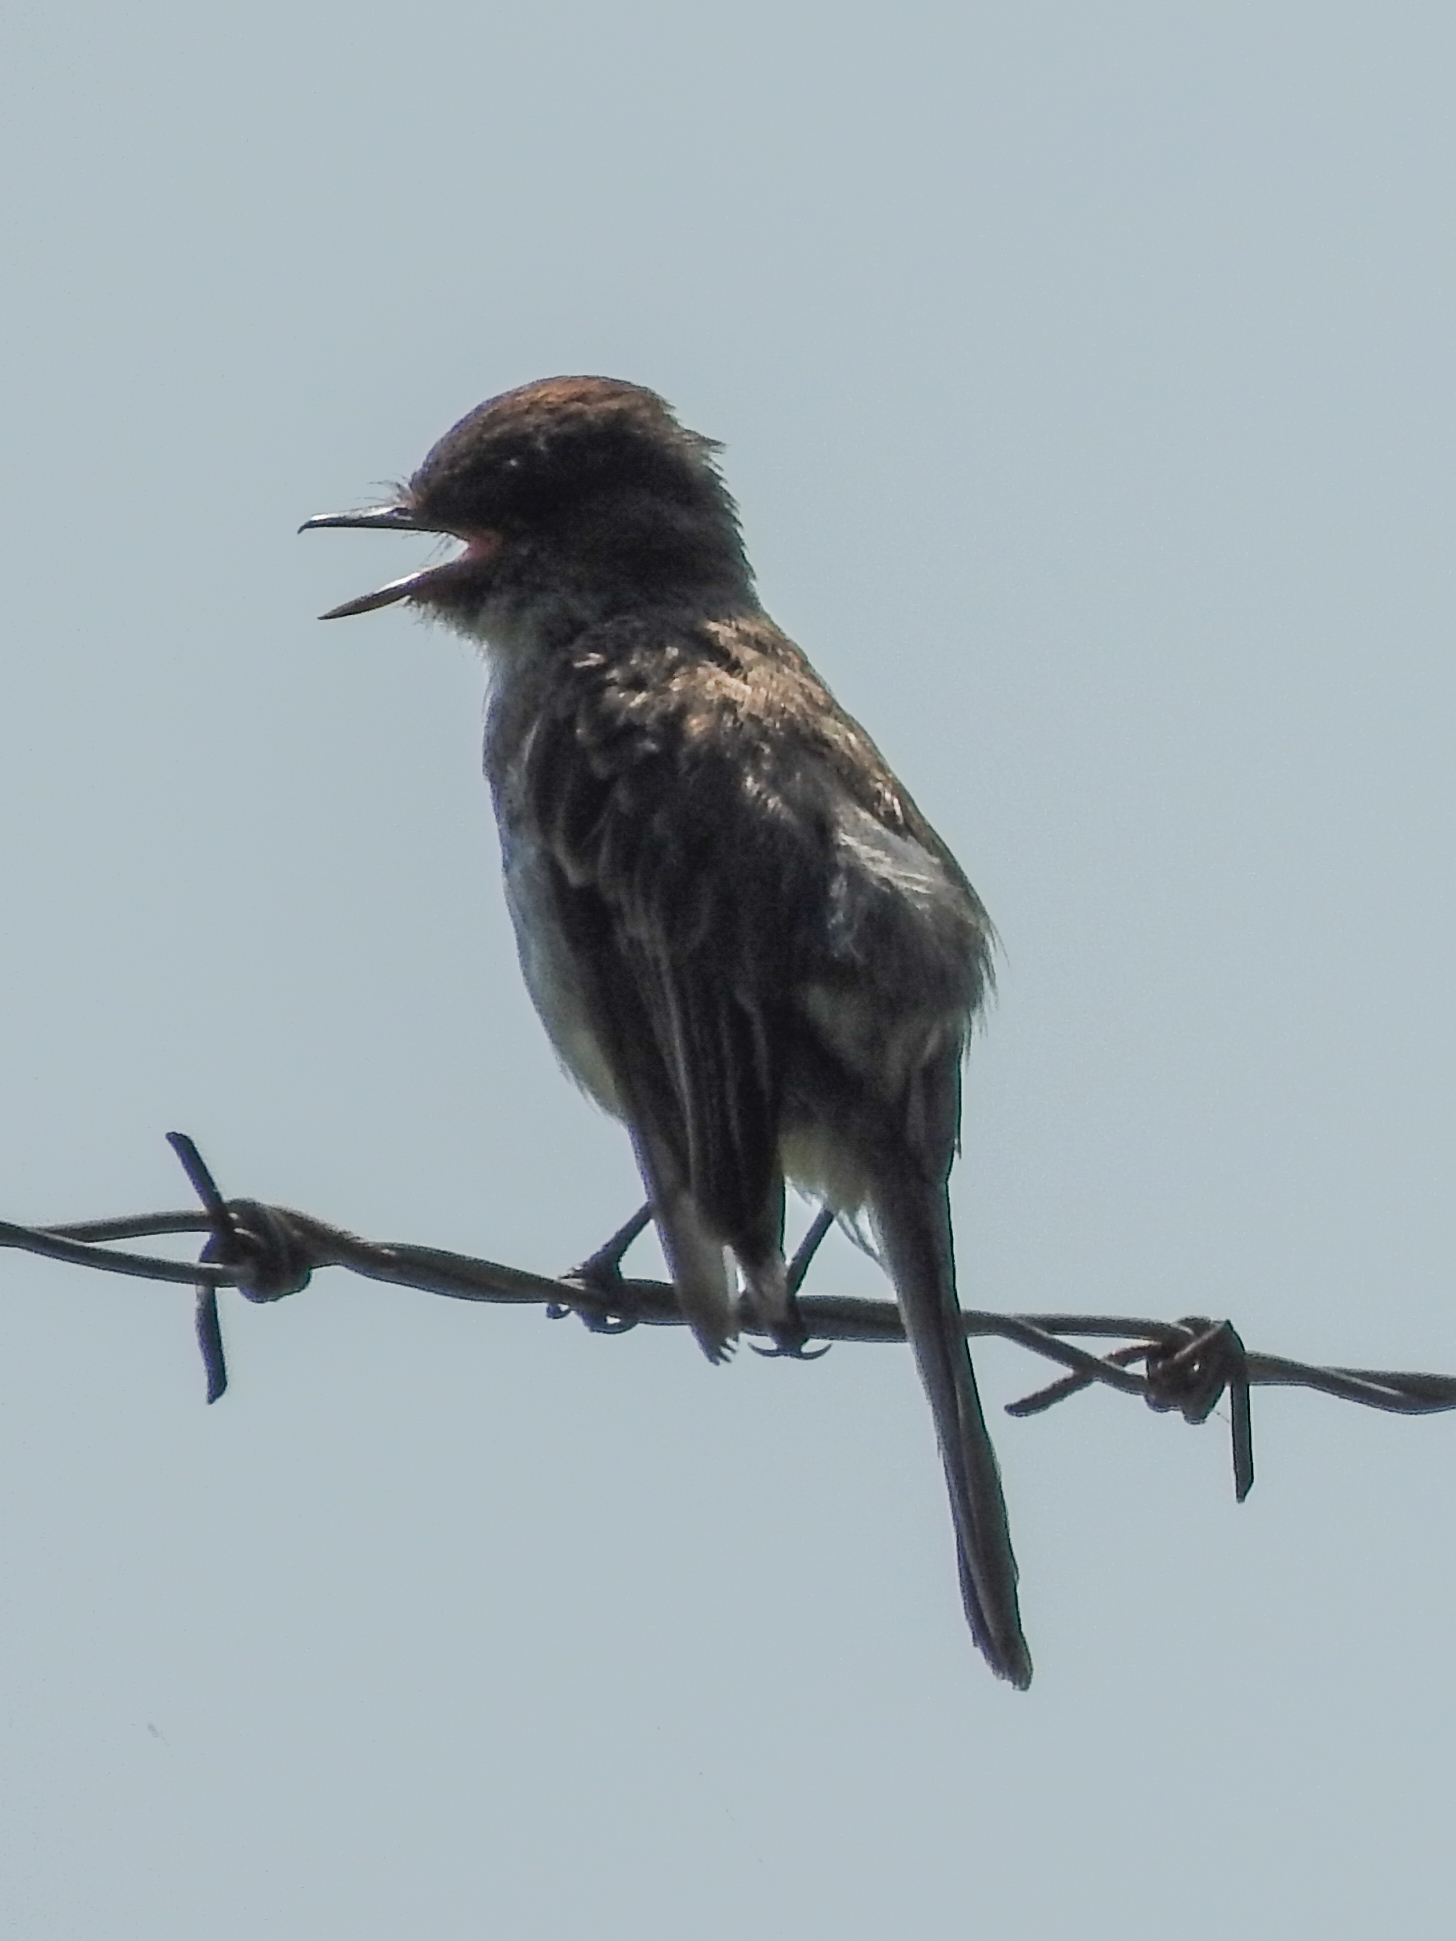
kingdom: Animalia
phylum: Chordata
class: Aves
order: Passeriformes
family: Tyrannidae
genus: Sayornis
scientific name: Sayornis phoebe
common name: Eastern phoebe
